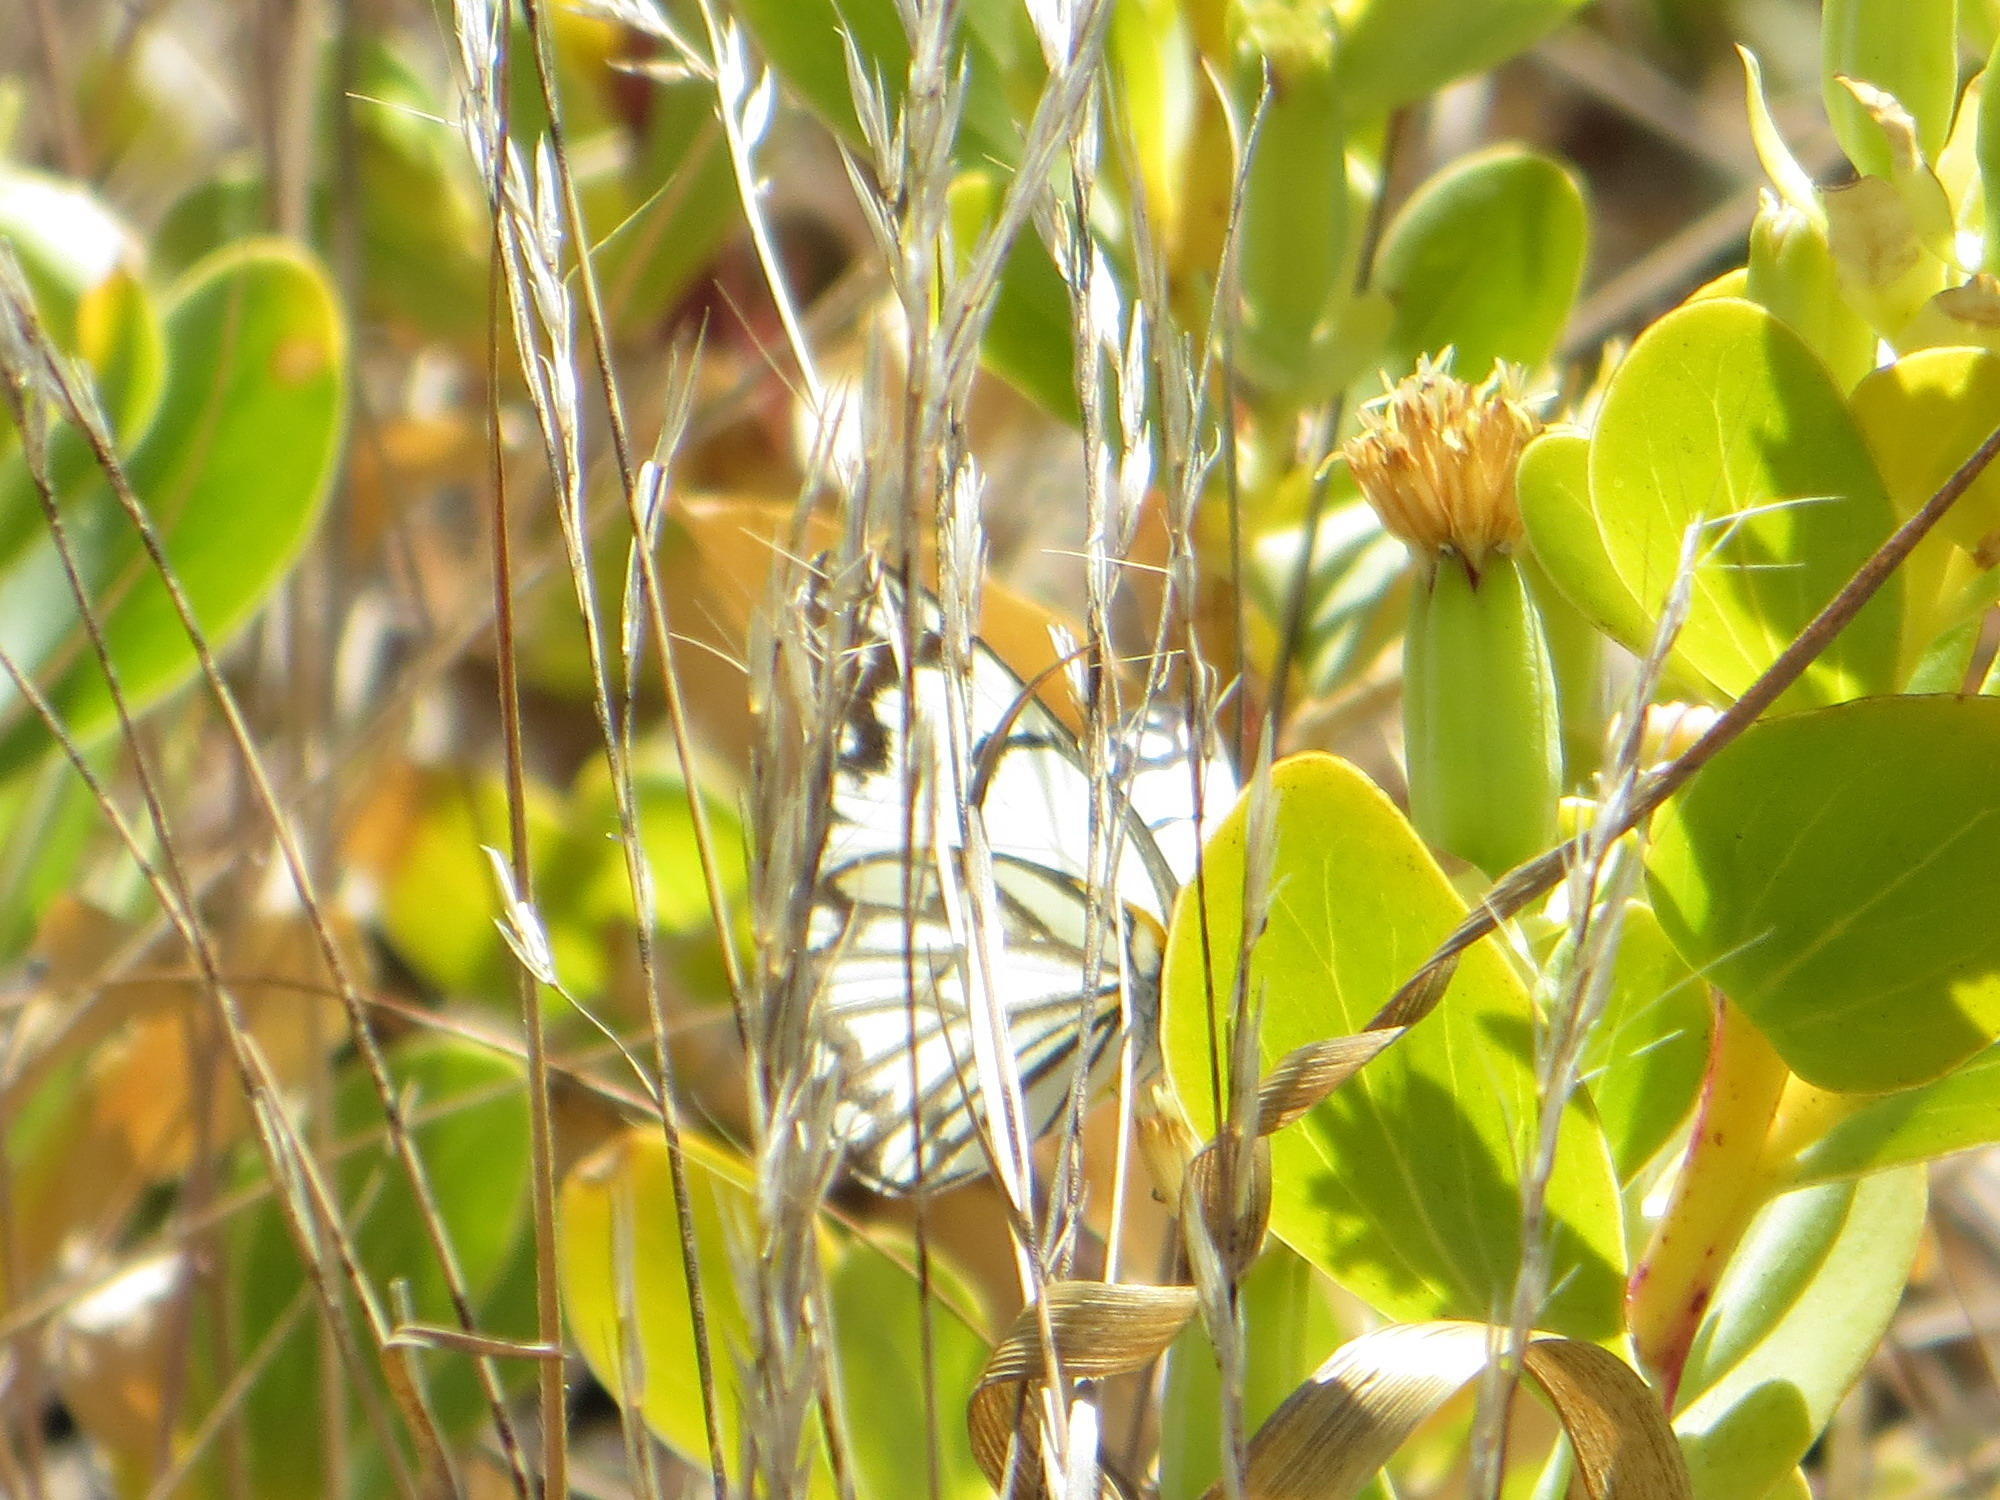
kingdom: Animalia
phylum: Arthropoda
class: Insecta
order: Lepidoptera
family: Pieridae
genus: Belenois
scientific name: Belenois aurota
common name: Brown-veined white
